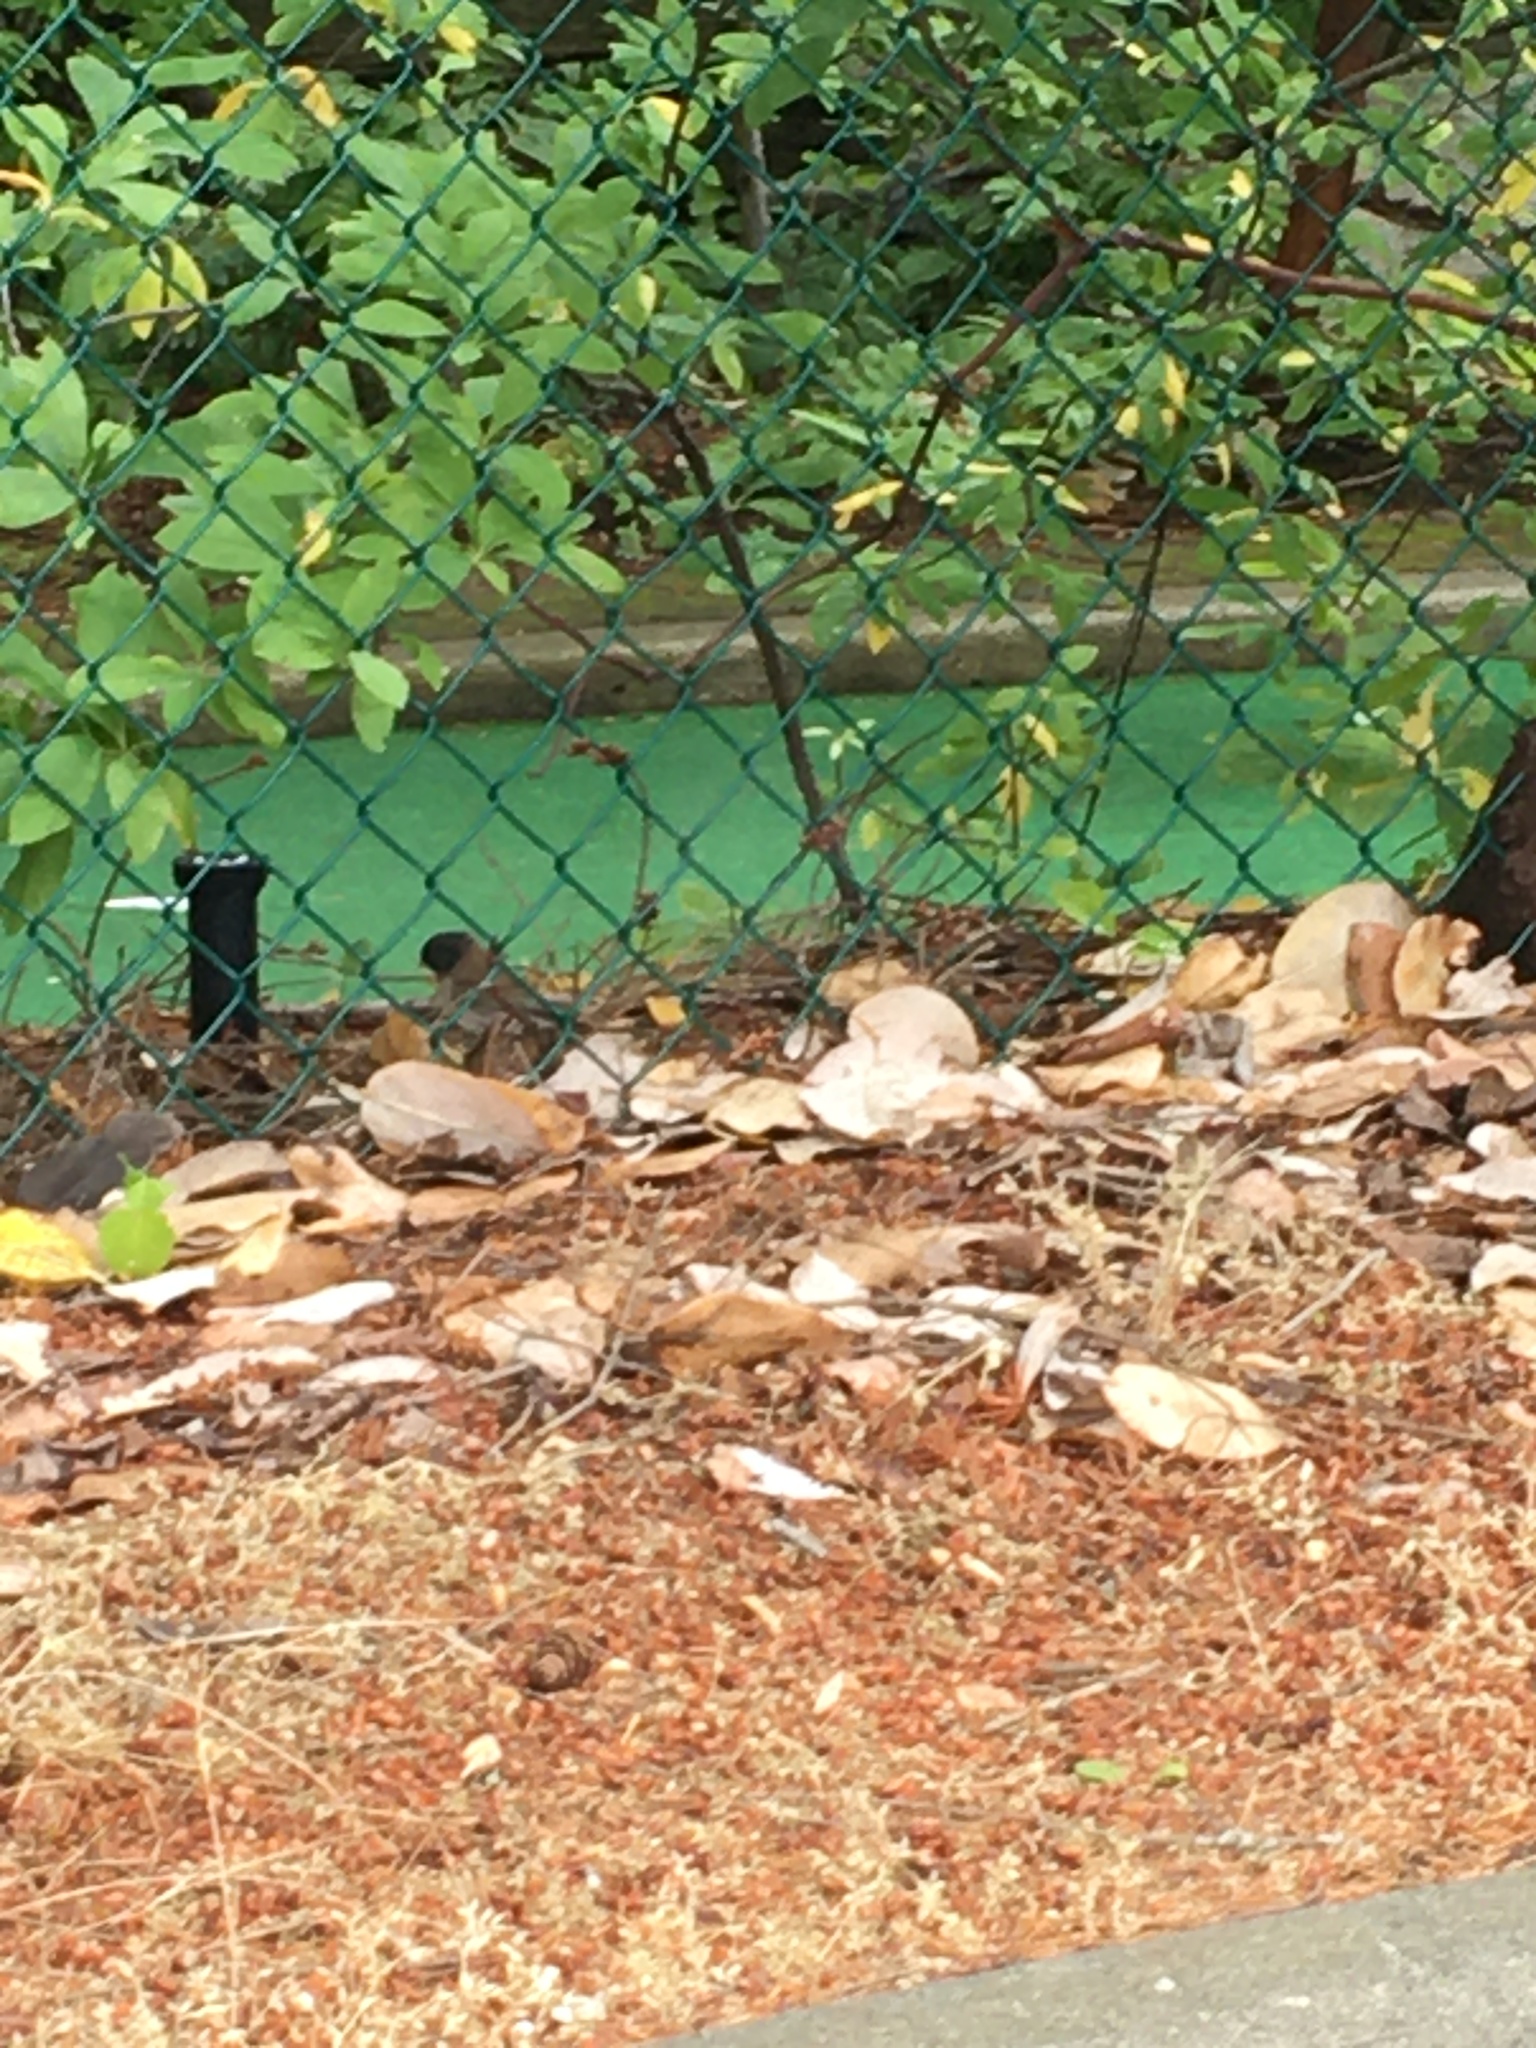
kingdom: Animalia
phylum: Chordata
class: Aves
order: Passeriformes
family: Passerellidae
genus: Junco
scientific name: Junco hyemalis
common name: Dark-eyed junco
